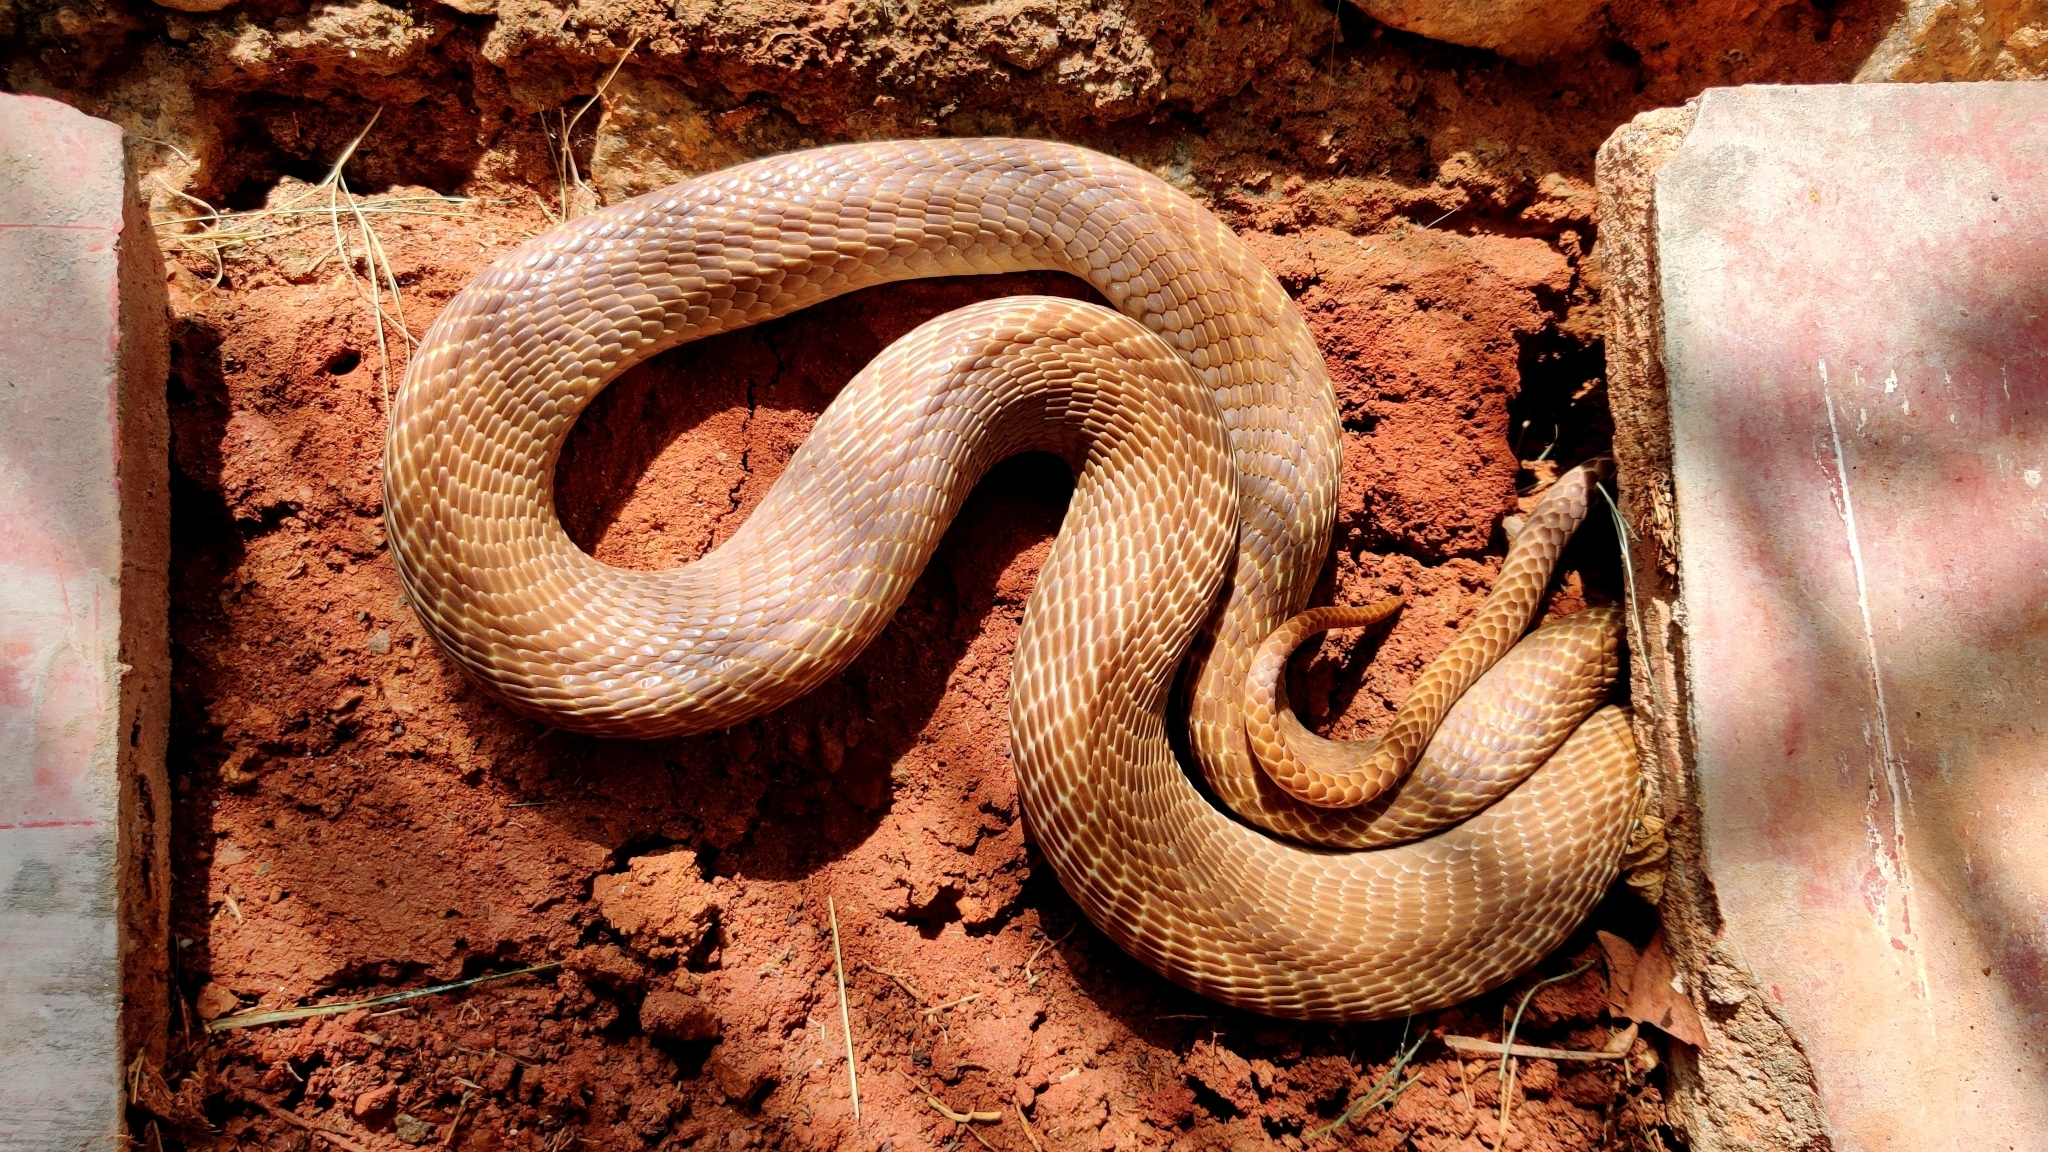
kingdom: Animalia
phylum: Chordata
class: Squamata
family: Elapidae
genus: Naja
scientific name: Naja naja
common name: Indian cobra
